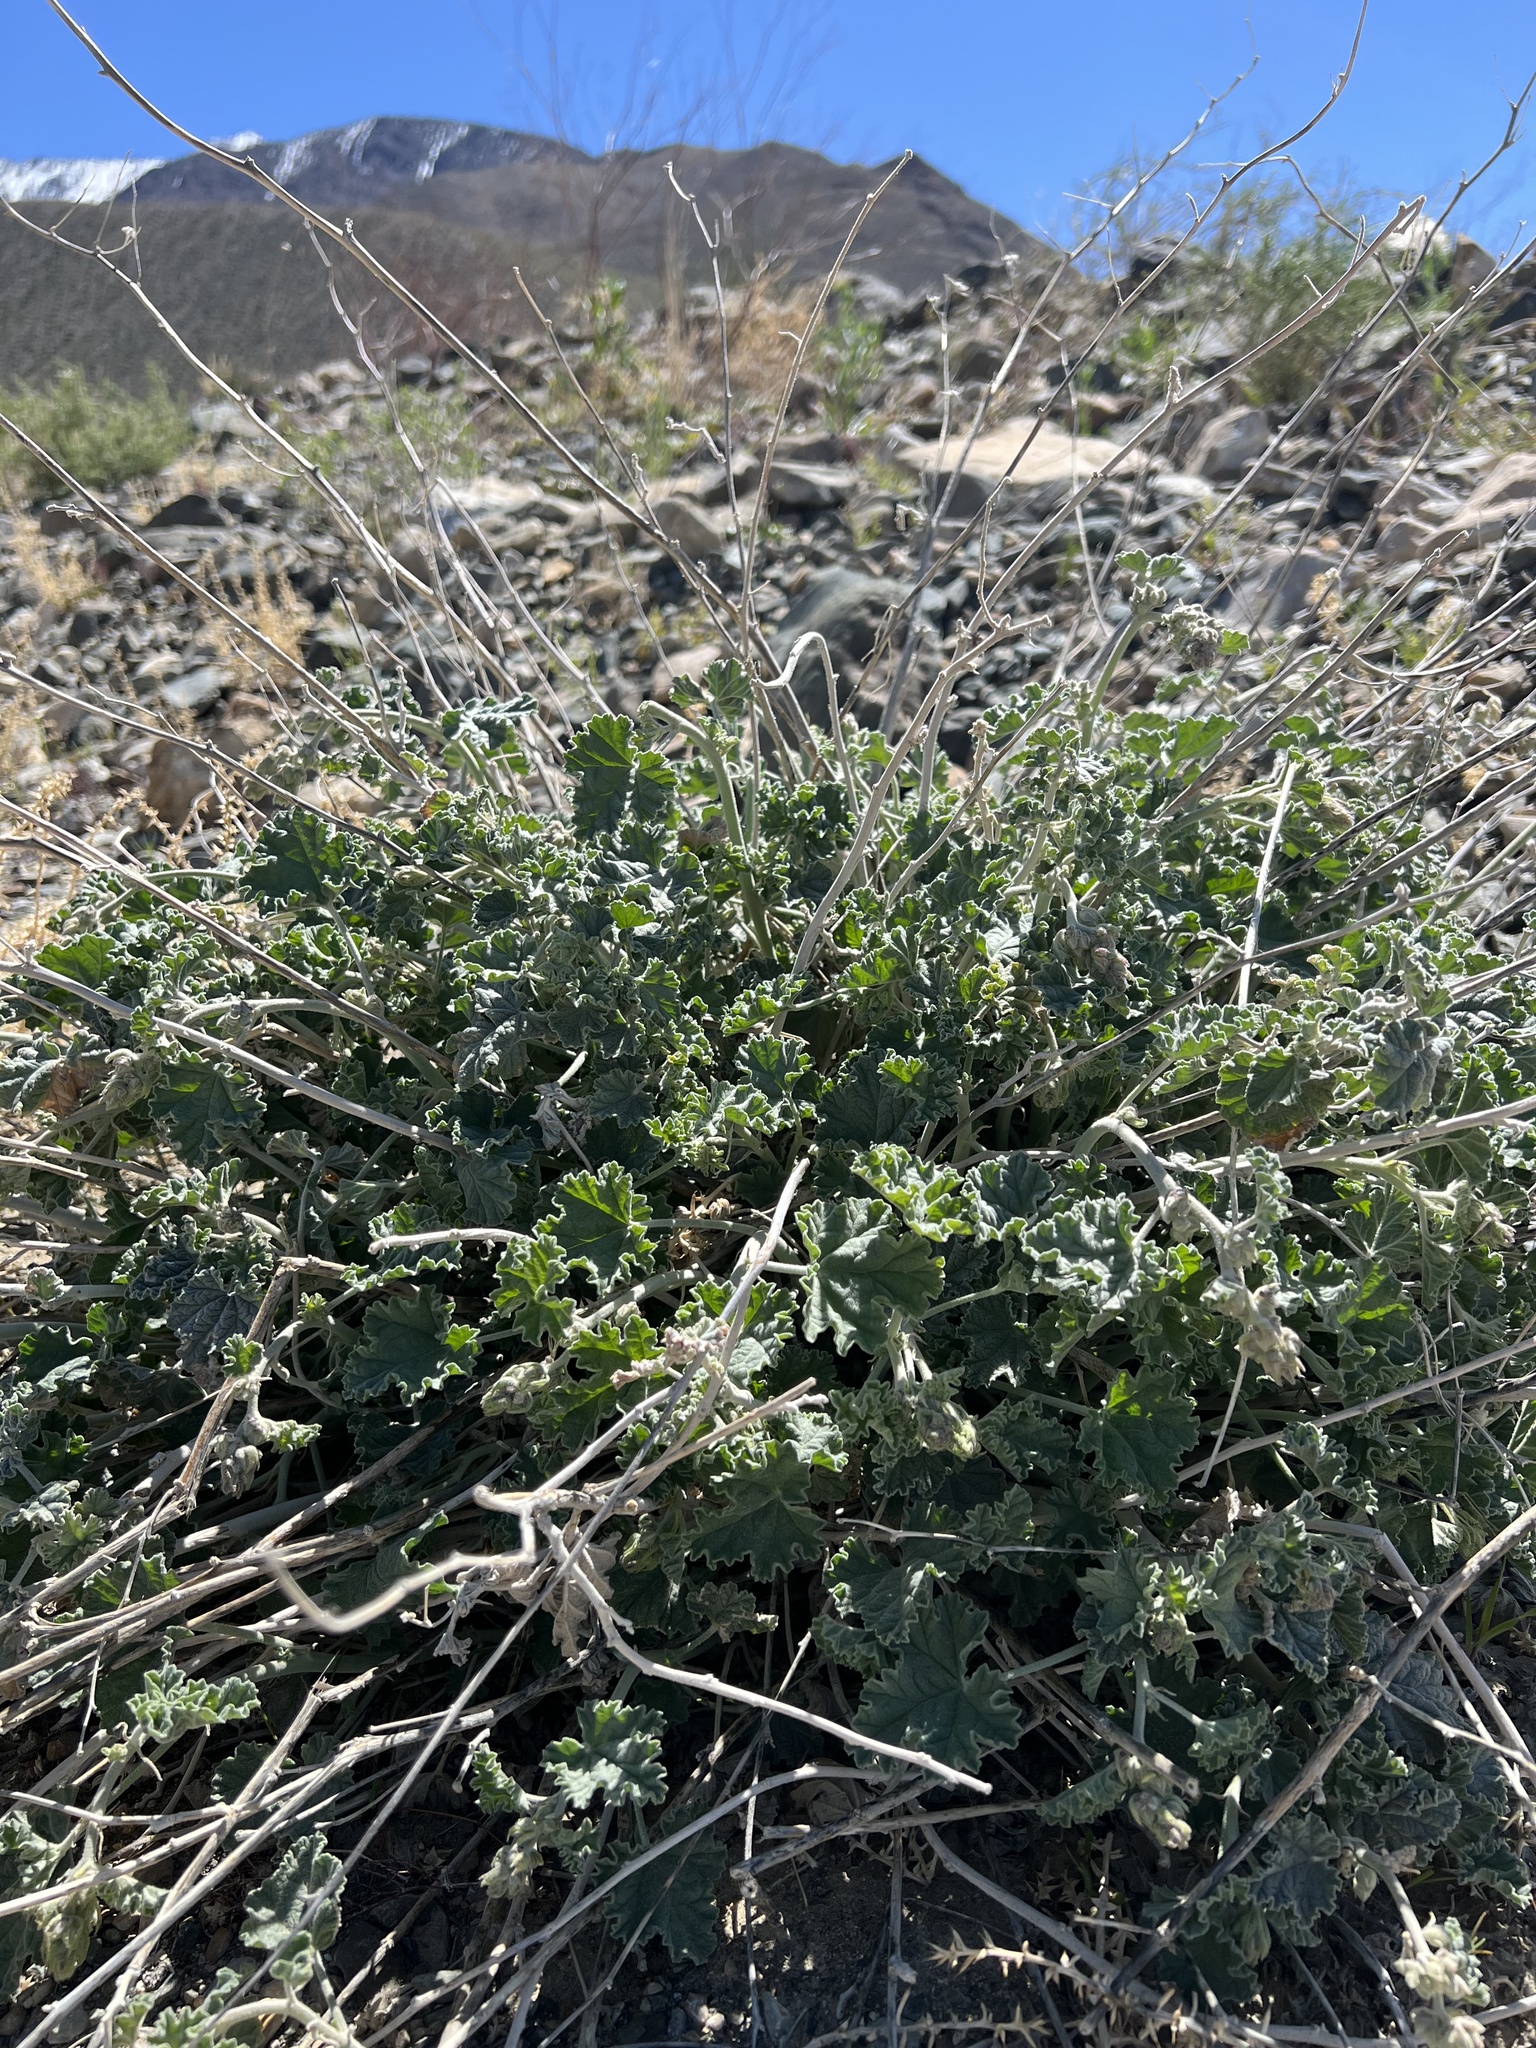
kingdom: Plantae
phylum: Tracheophyta
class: Magnoliopsida
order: Malvales
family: Malvaceae
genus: Sphaeralcea
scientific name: Sphaeralcea ambigua
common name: Apricot globe-mallow
